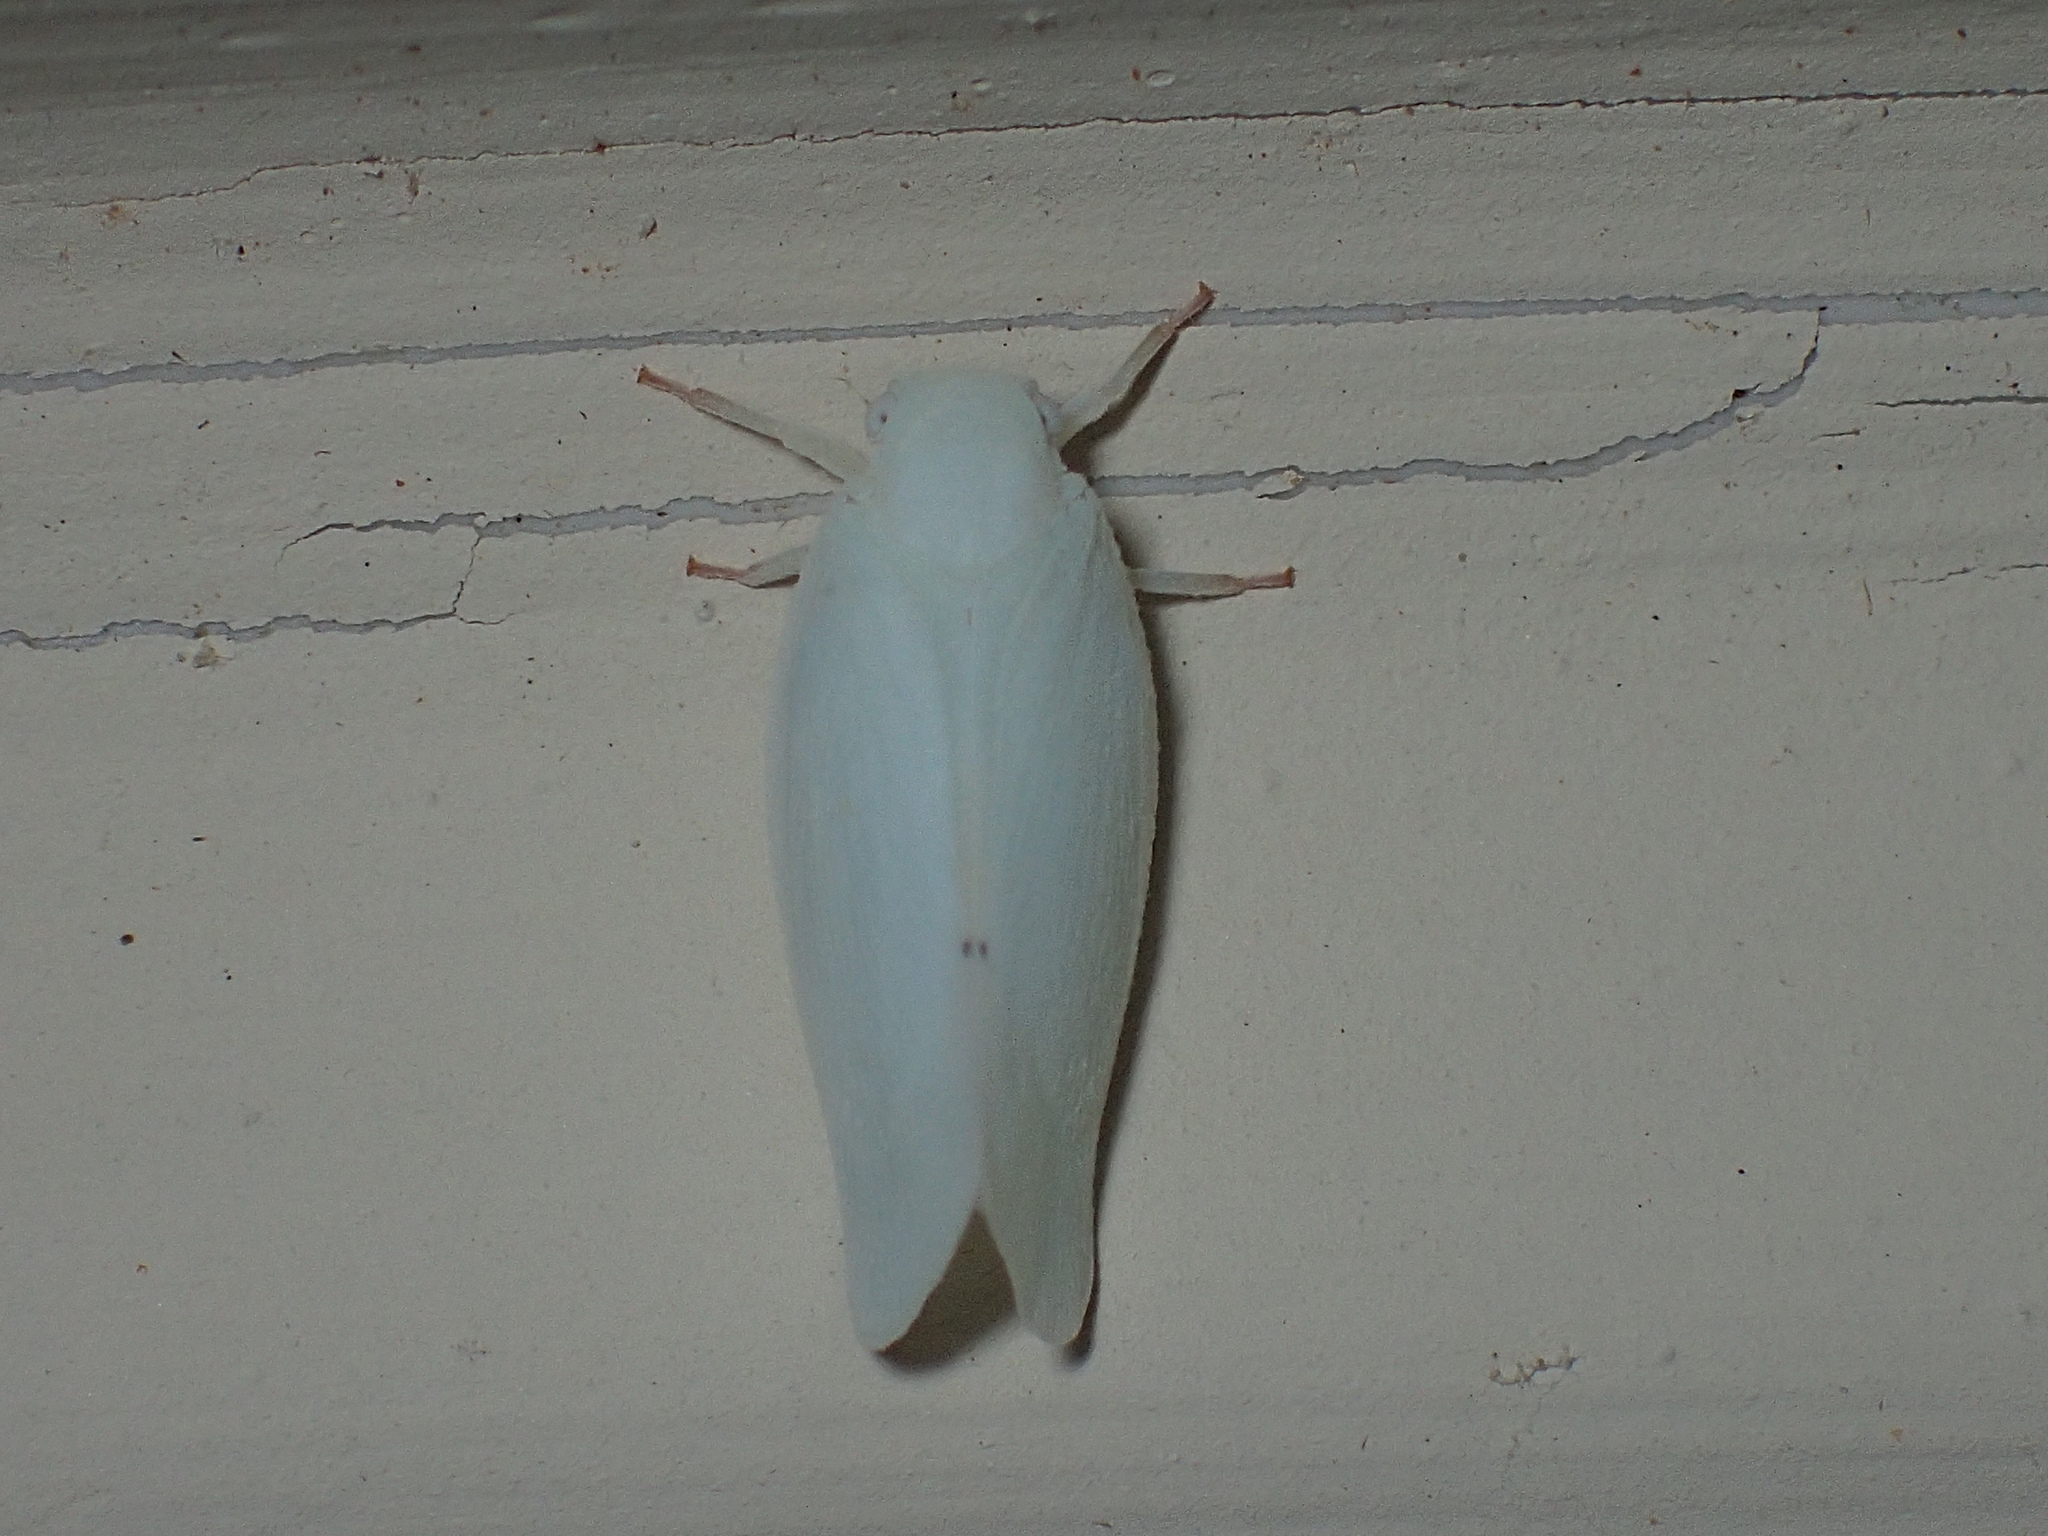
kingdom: Animalia
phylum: Arthropoda
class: Insecta
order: Hemiptera
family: Flatidae
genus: Flatormenis
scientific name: Flatormenis proxima
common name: Northern flatid planthopper
